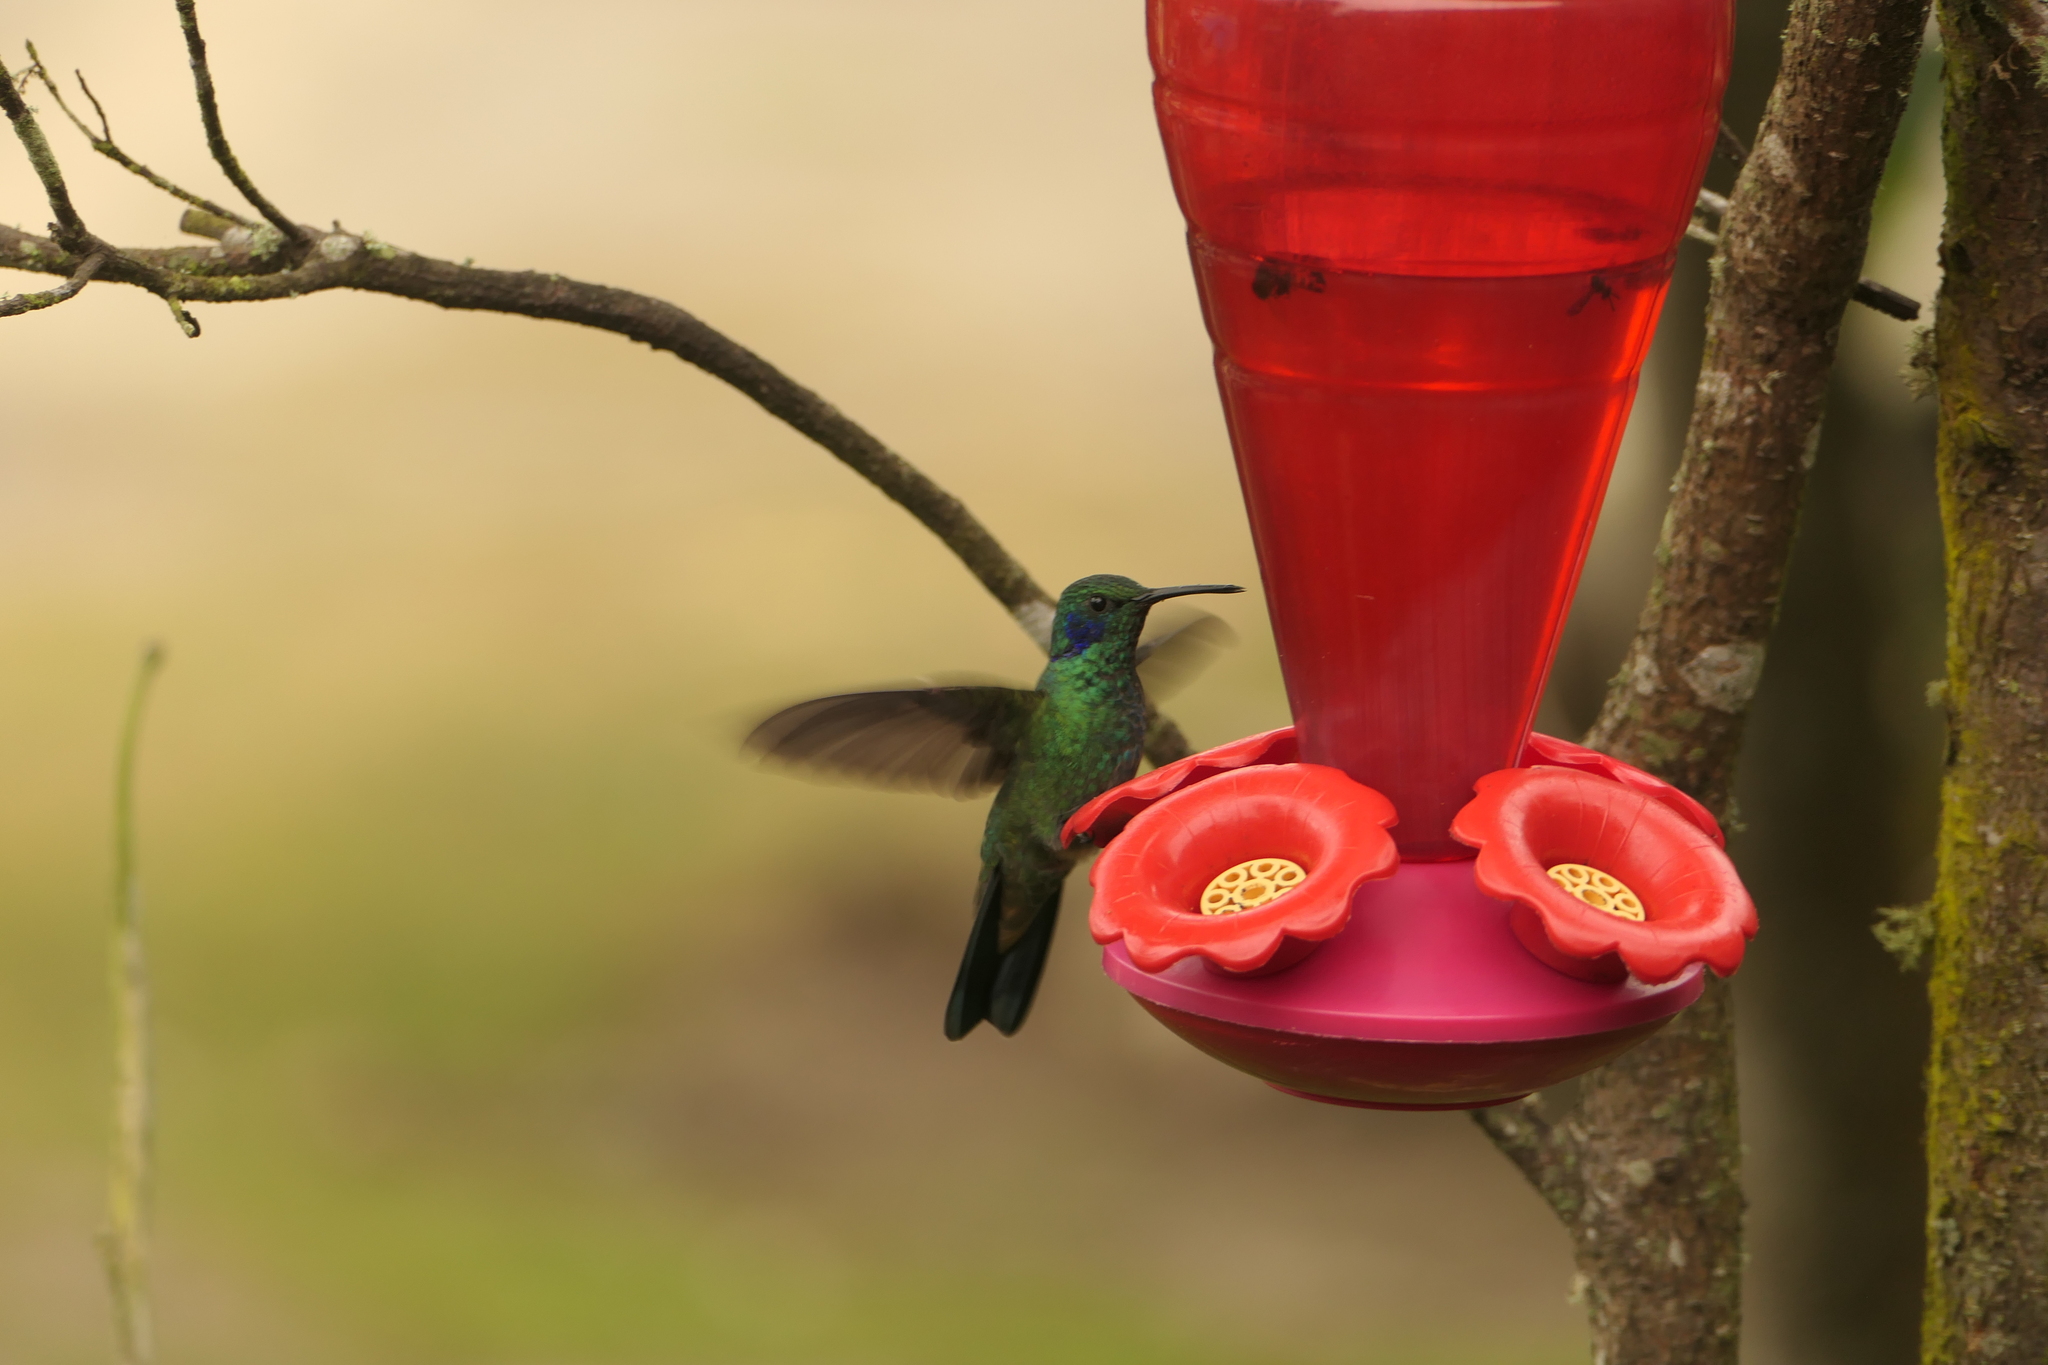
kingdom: Animalia
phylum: Chordata
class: Aves
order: Apodiformes
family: Trochilidae
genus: Colibri
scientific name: Colibri cyanotus
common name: Lesser violetear
